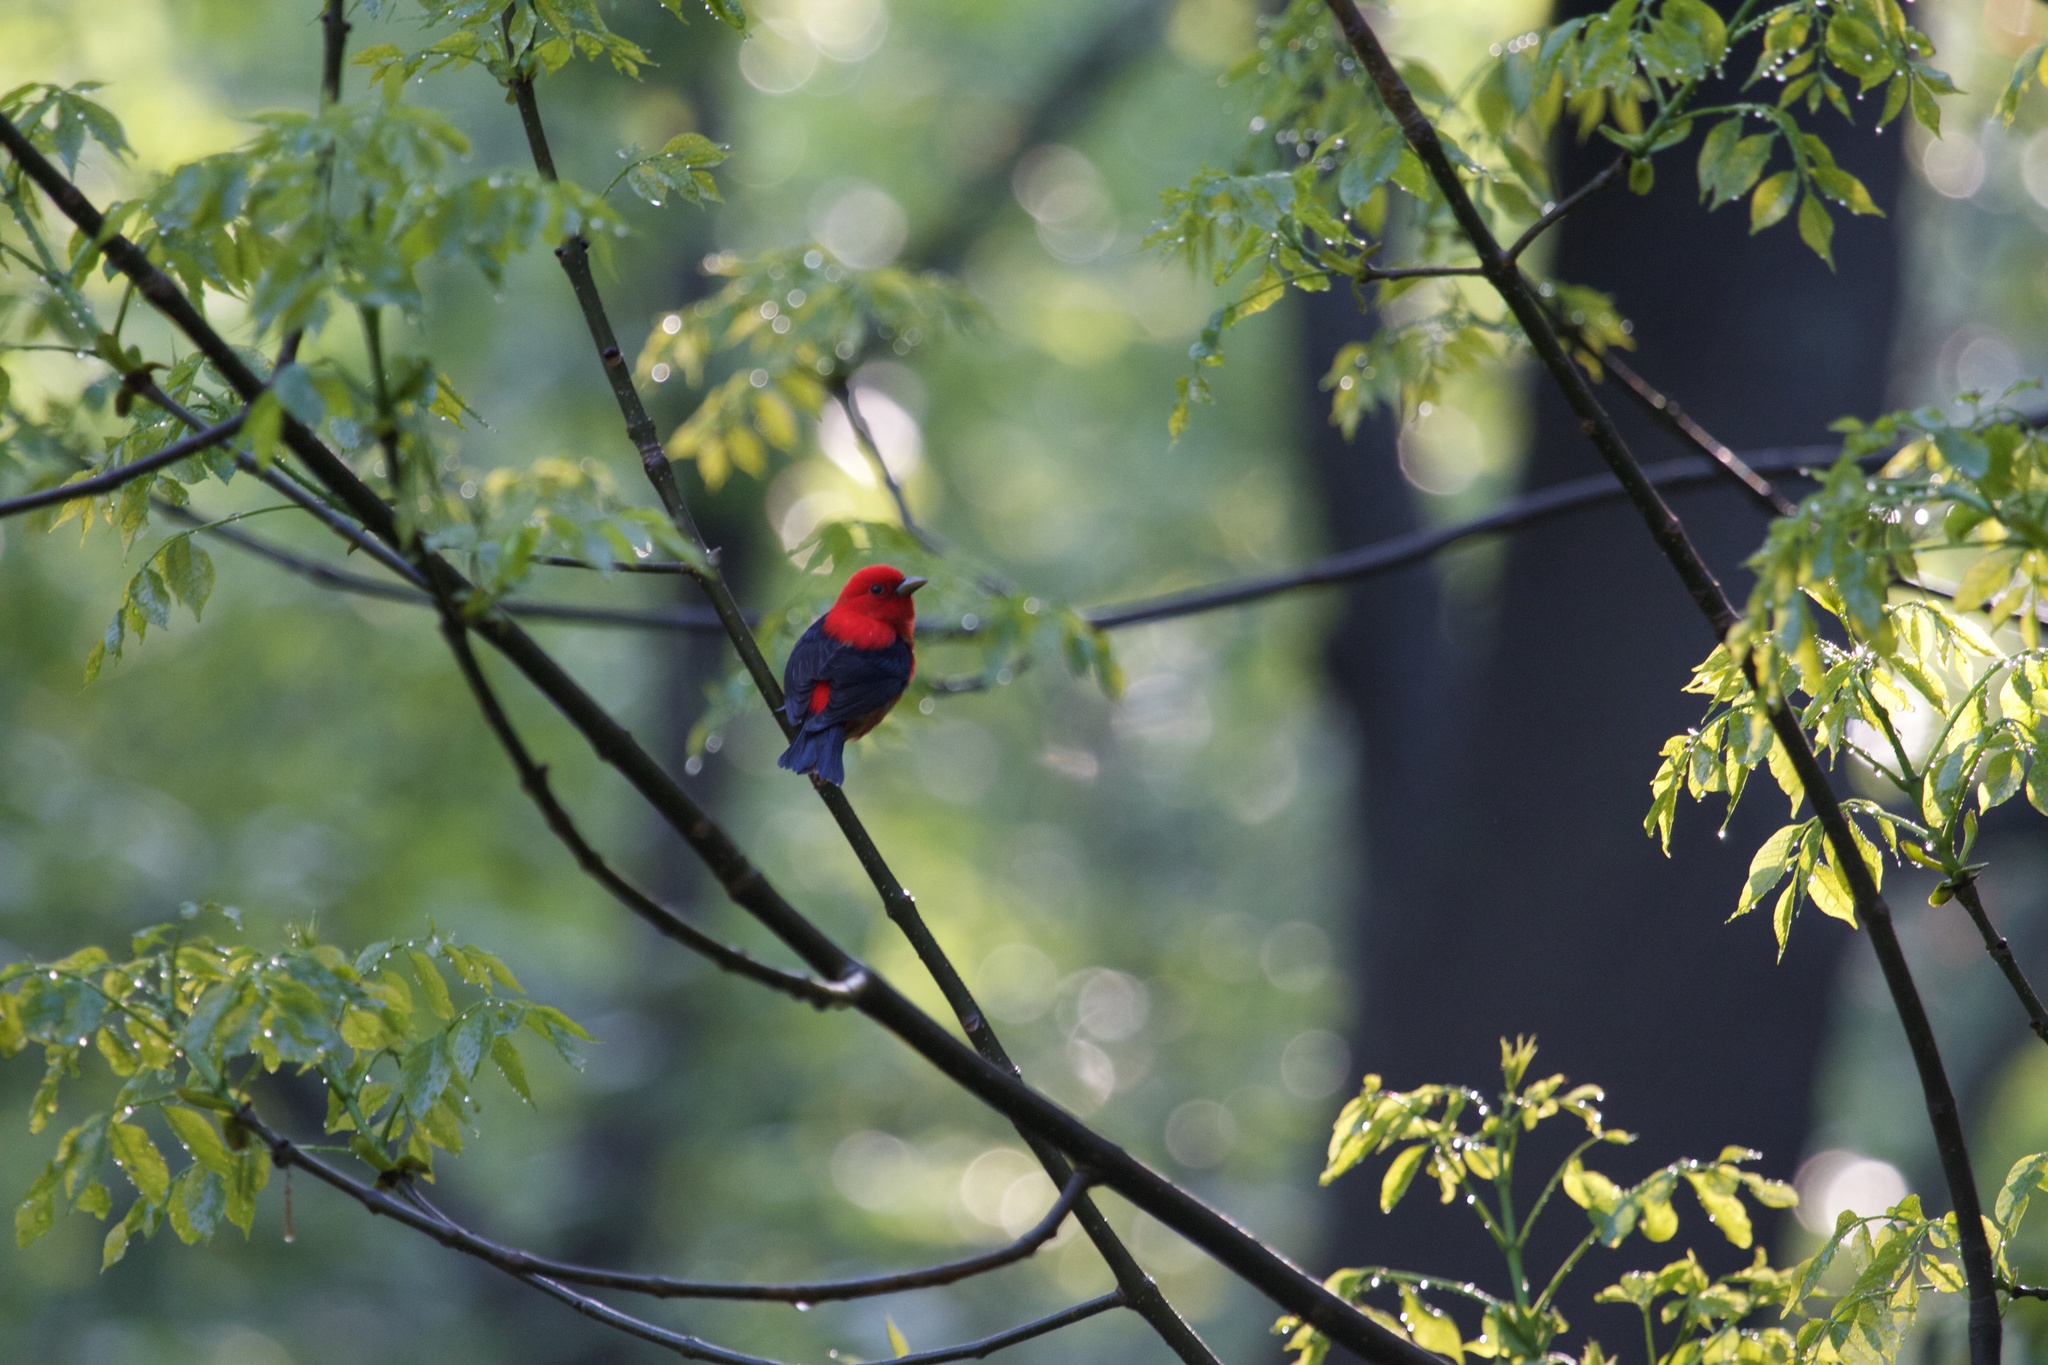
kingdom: Animalia
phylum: Chordata
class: Aves
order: Passeriformes
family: Cardinalidae
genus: Piranga
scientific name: Piranga olivacea
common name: Scarlet tanager
